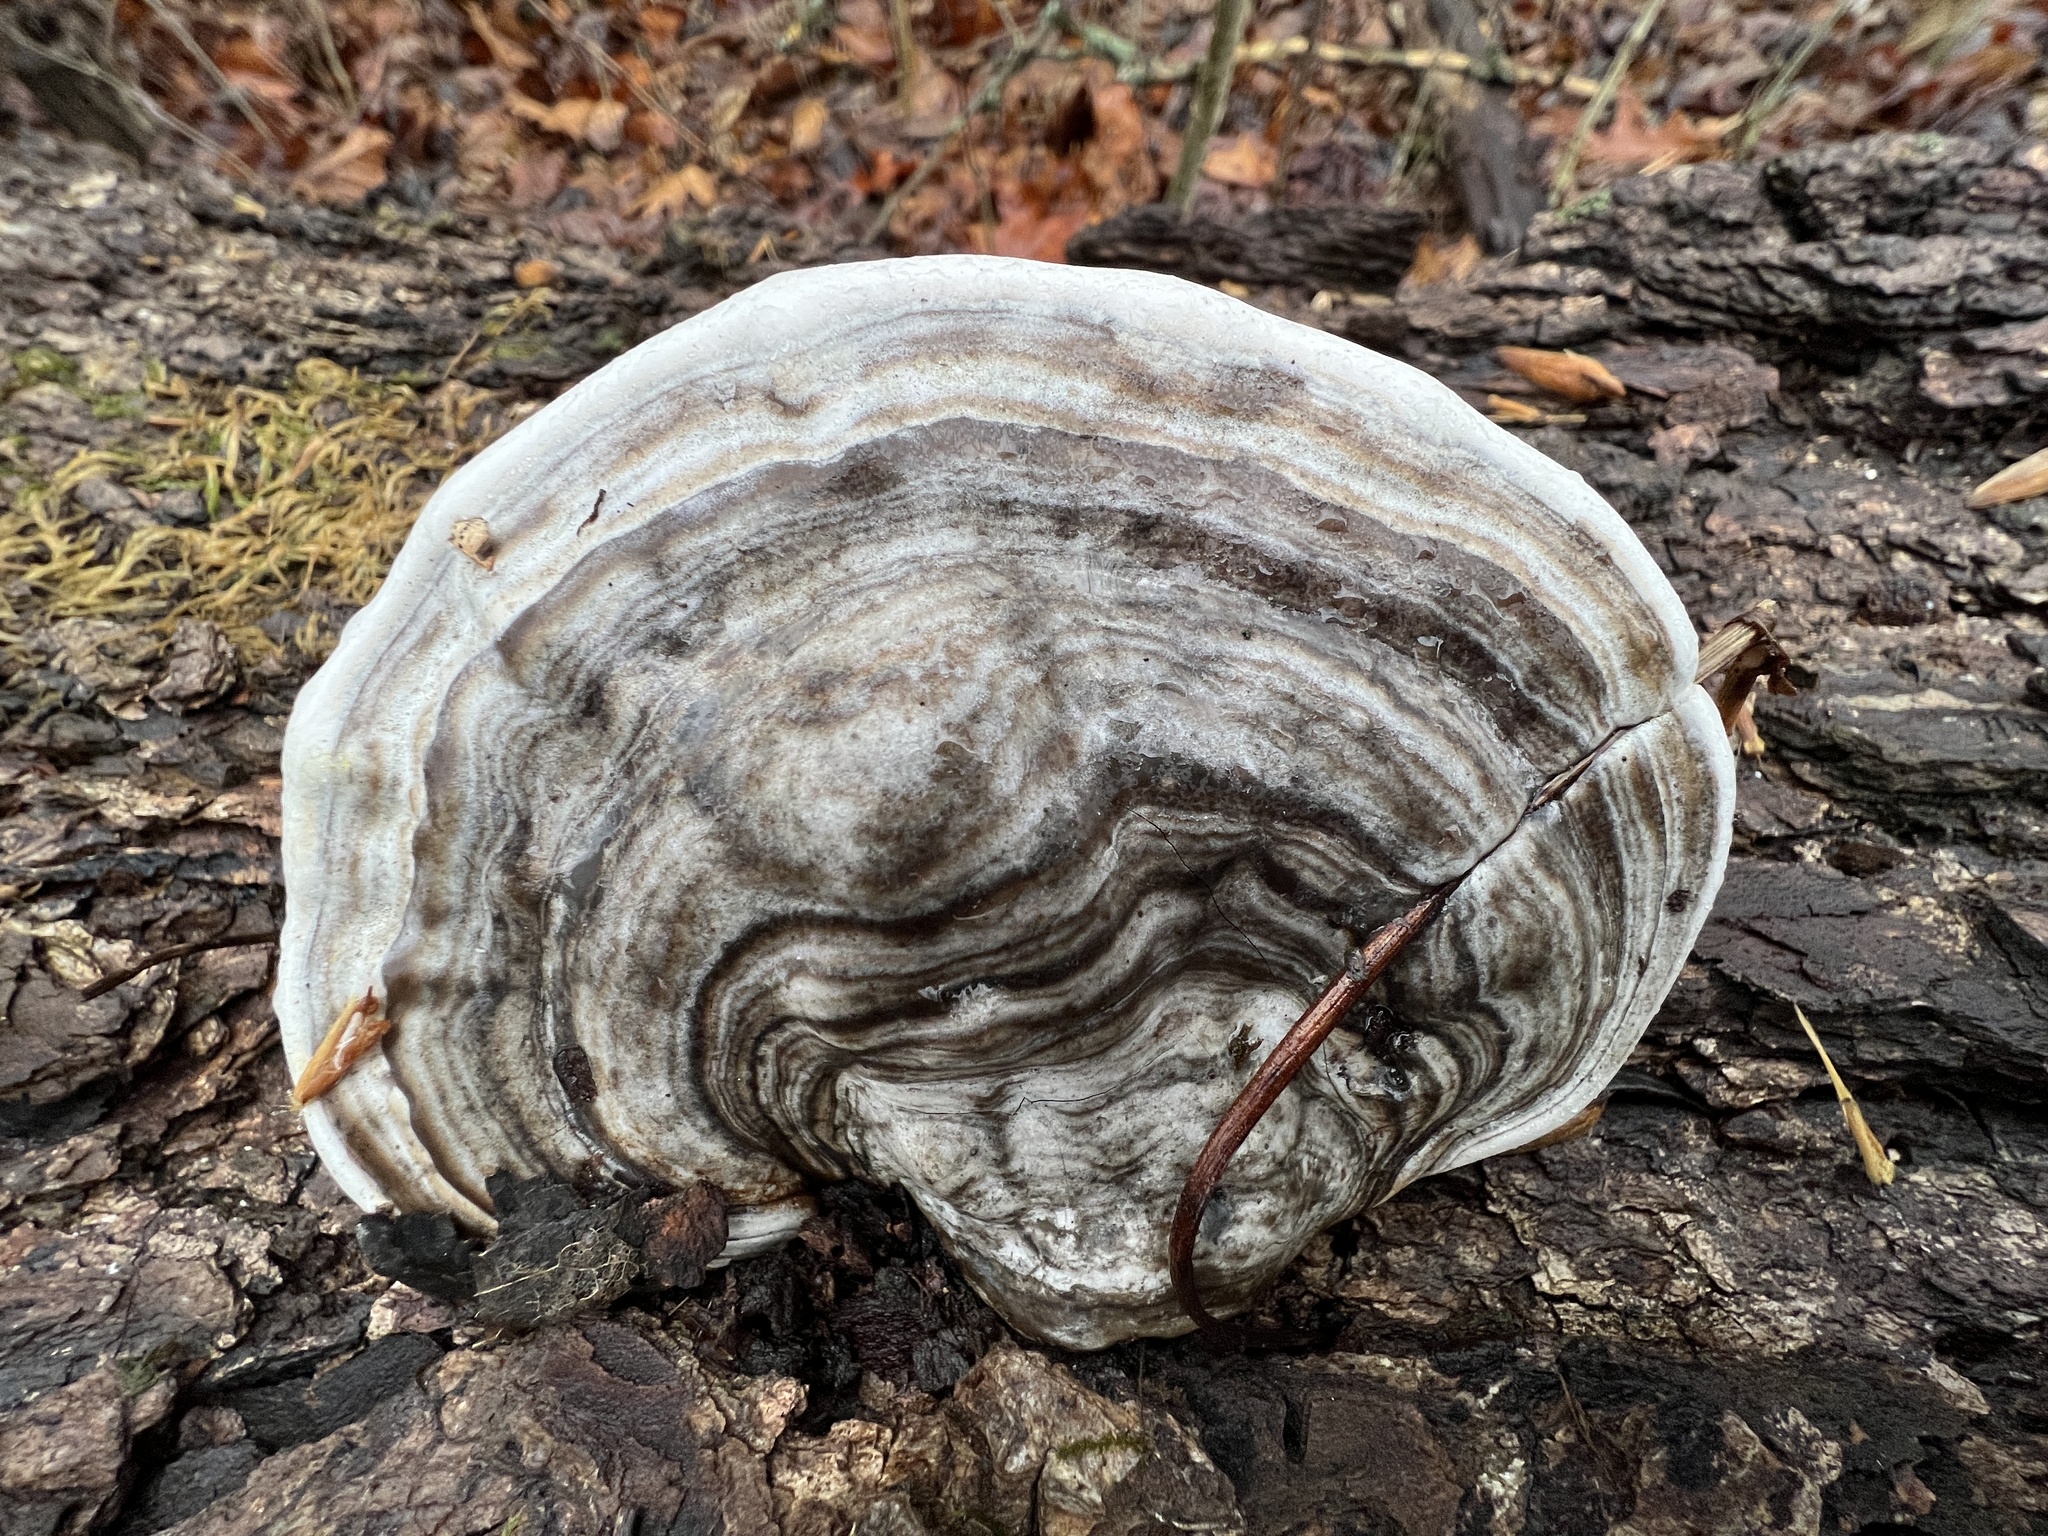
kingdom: Fungi
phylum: Basidiomycota
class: Agaricomycetes
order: Polyporales
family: Polyporaceae
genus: Ganoderma
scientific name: Ganoderma applanatum
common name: Artist's bracket
